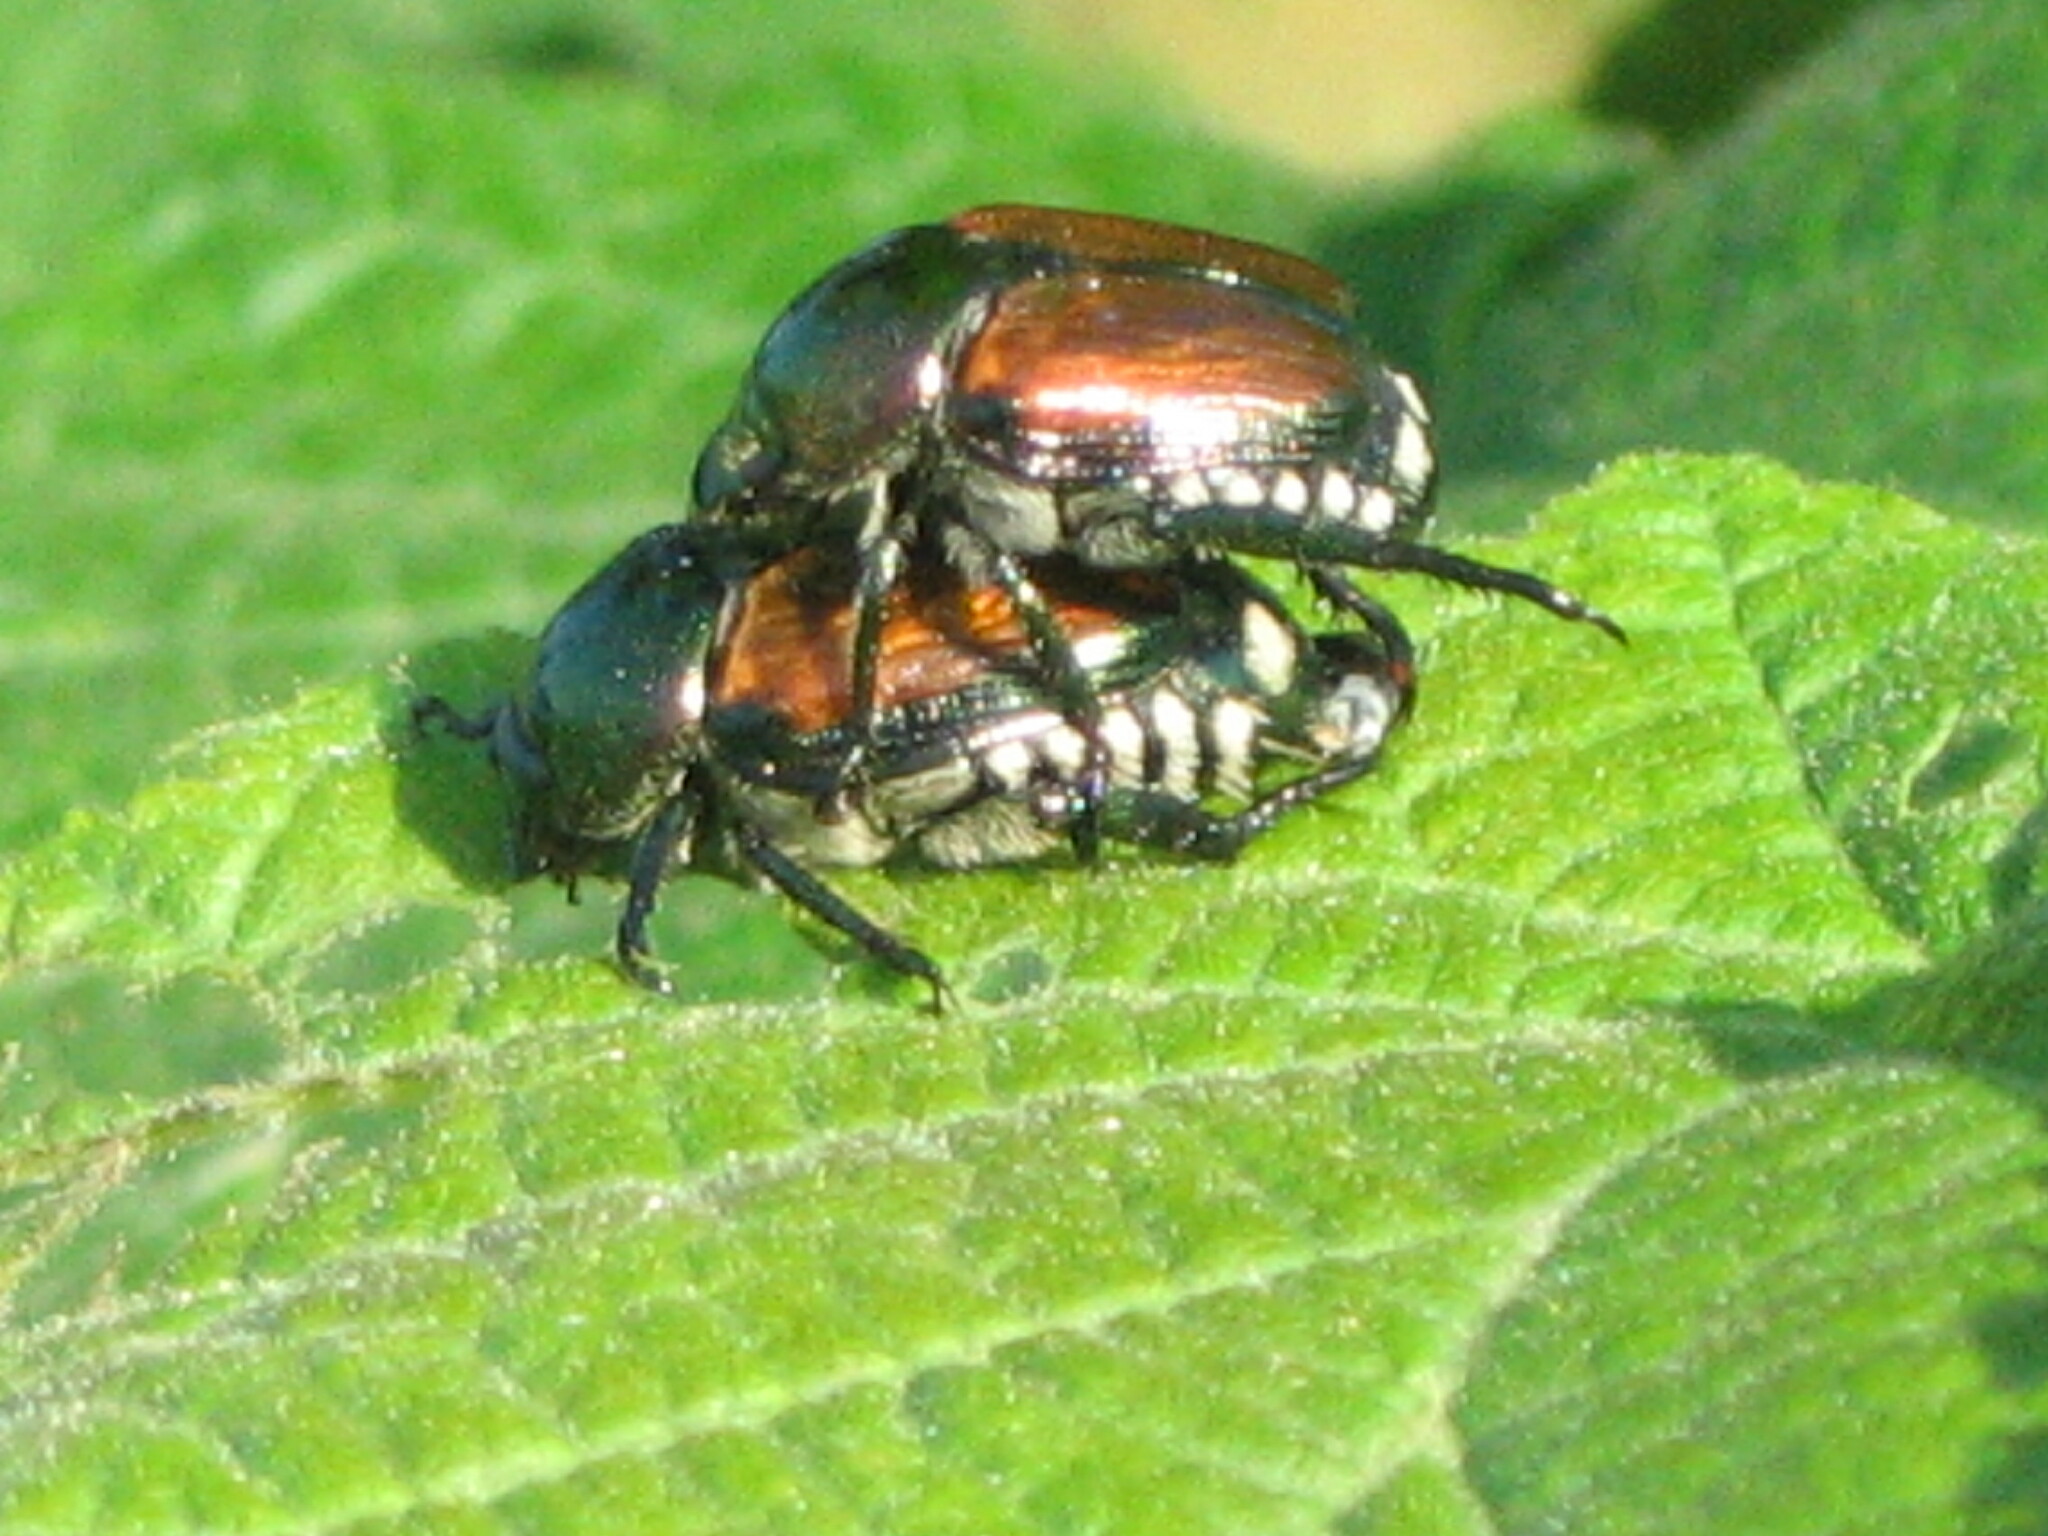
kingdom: Animalia
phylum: Arthropoda
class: Insecta
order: Coleoptera
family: Scarabaeidae
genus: Popillia
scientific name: Popillia japonica
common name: Japanese beetle
